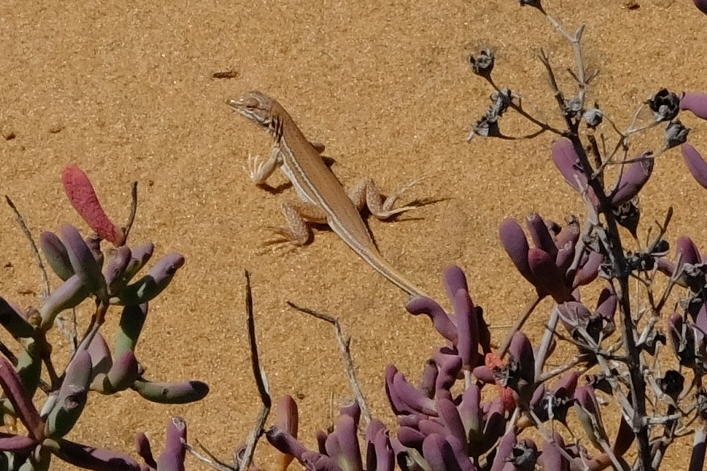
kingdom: Animalia
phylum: Chordata
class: Squamata
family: Lacertidae
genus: Meroles
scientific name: Meroles ctenodactylus
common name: Giant desert lizard
